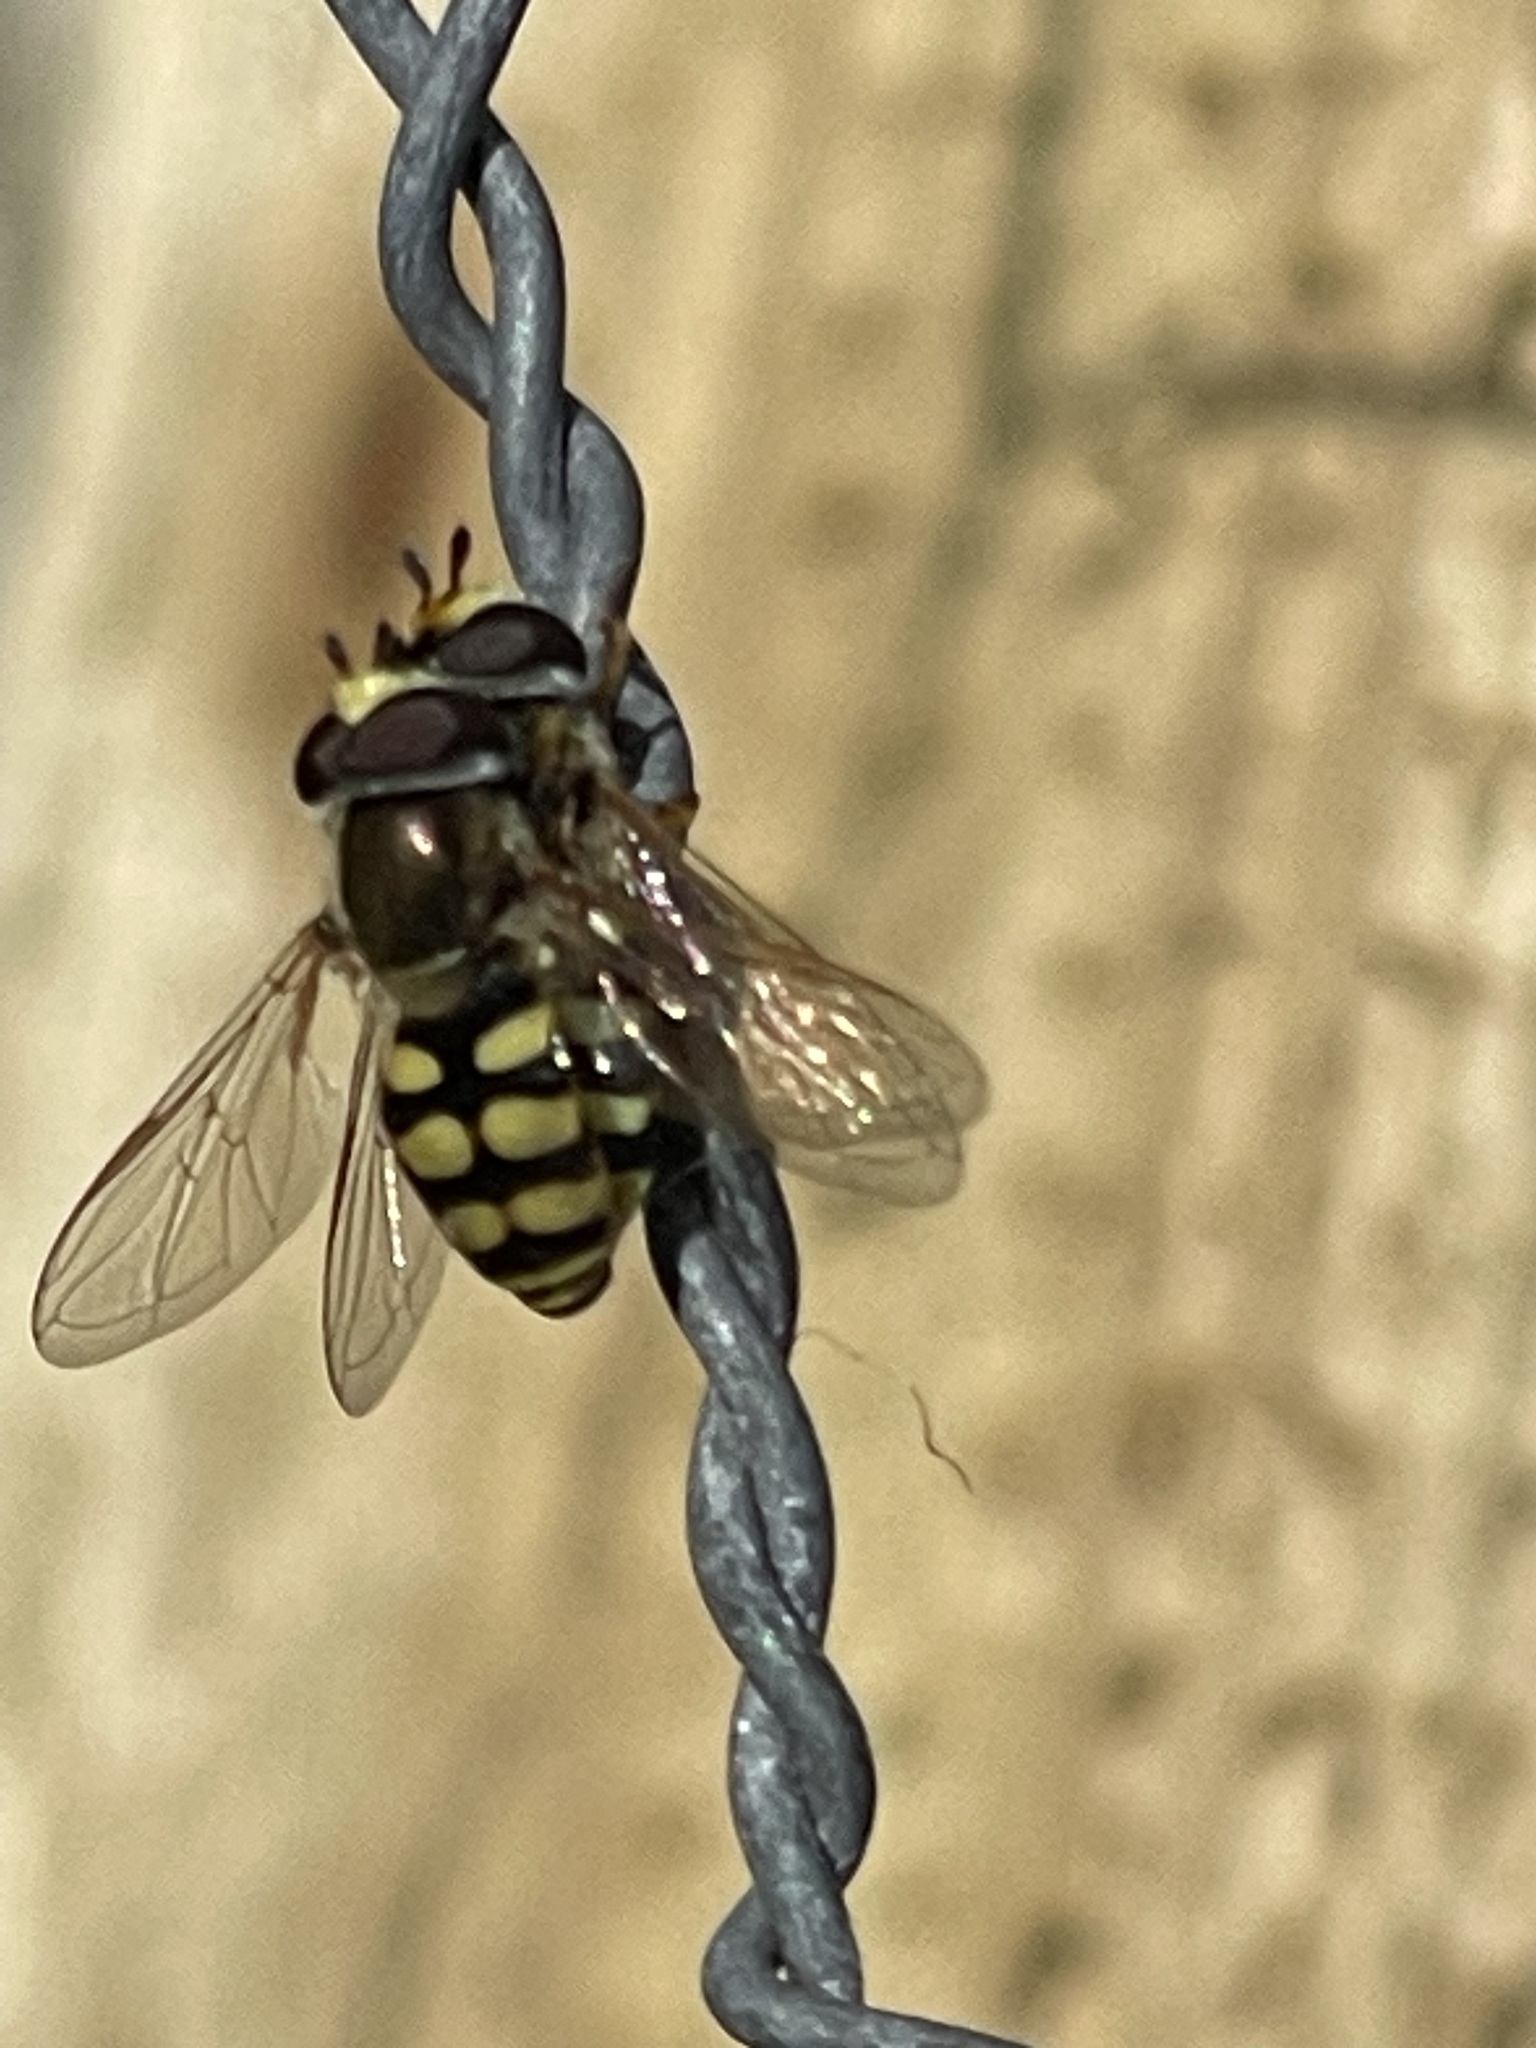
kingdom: Animalia
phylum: Arthropoda
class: Insecta
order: Diptera
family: Syrphidae
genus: Eupeodes
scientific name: Eupeodes corollae
